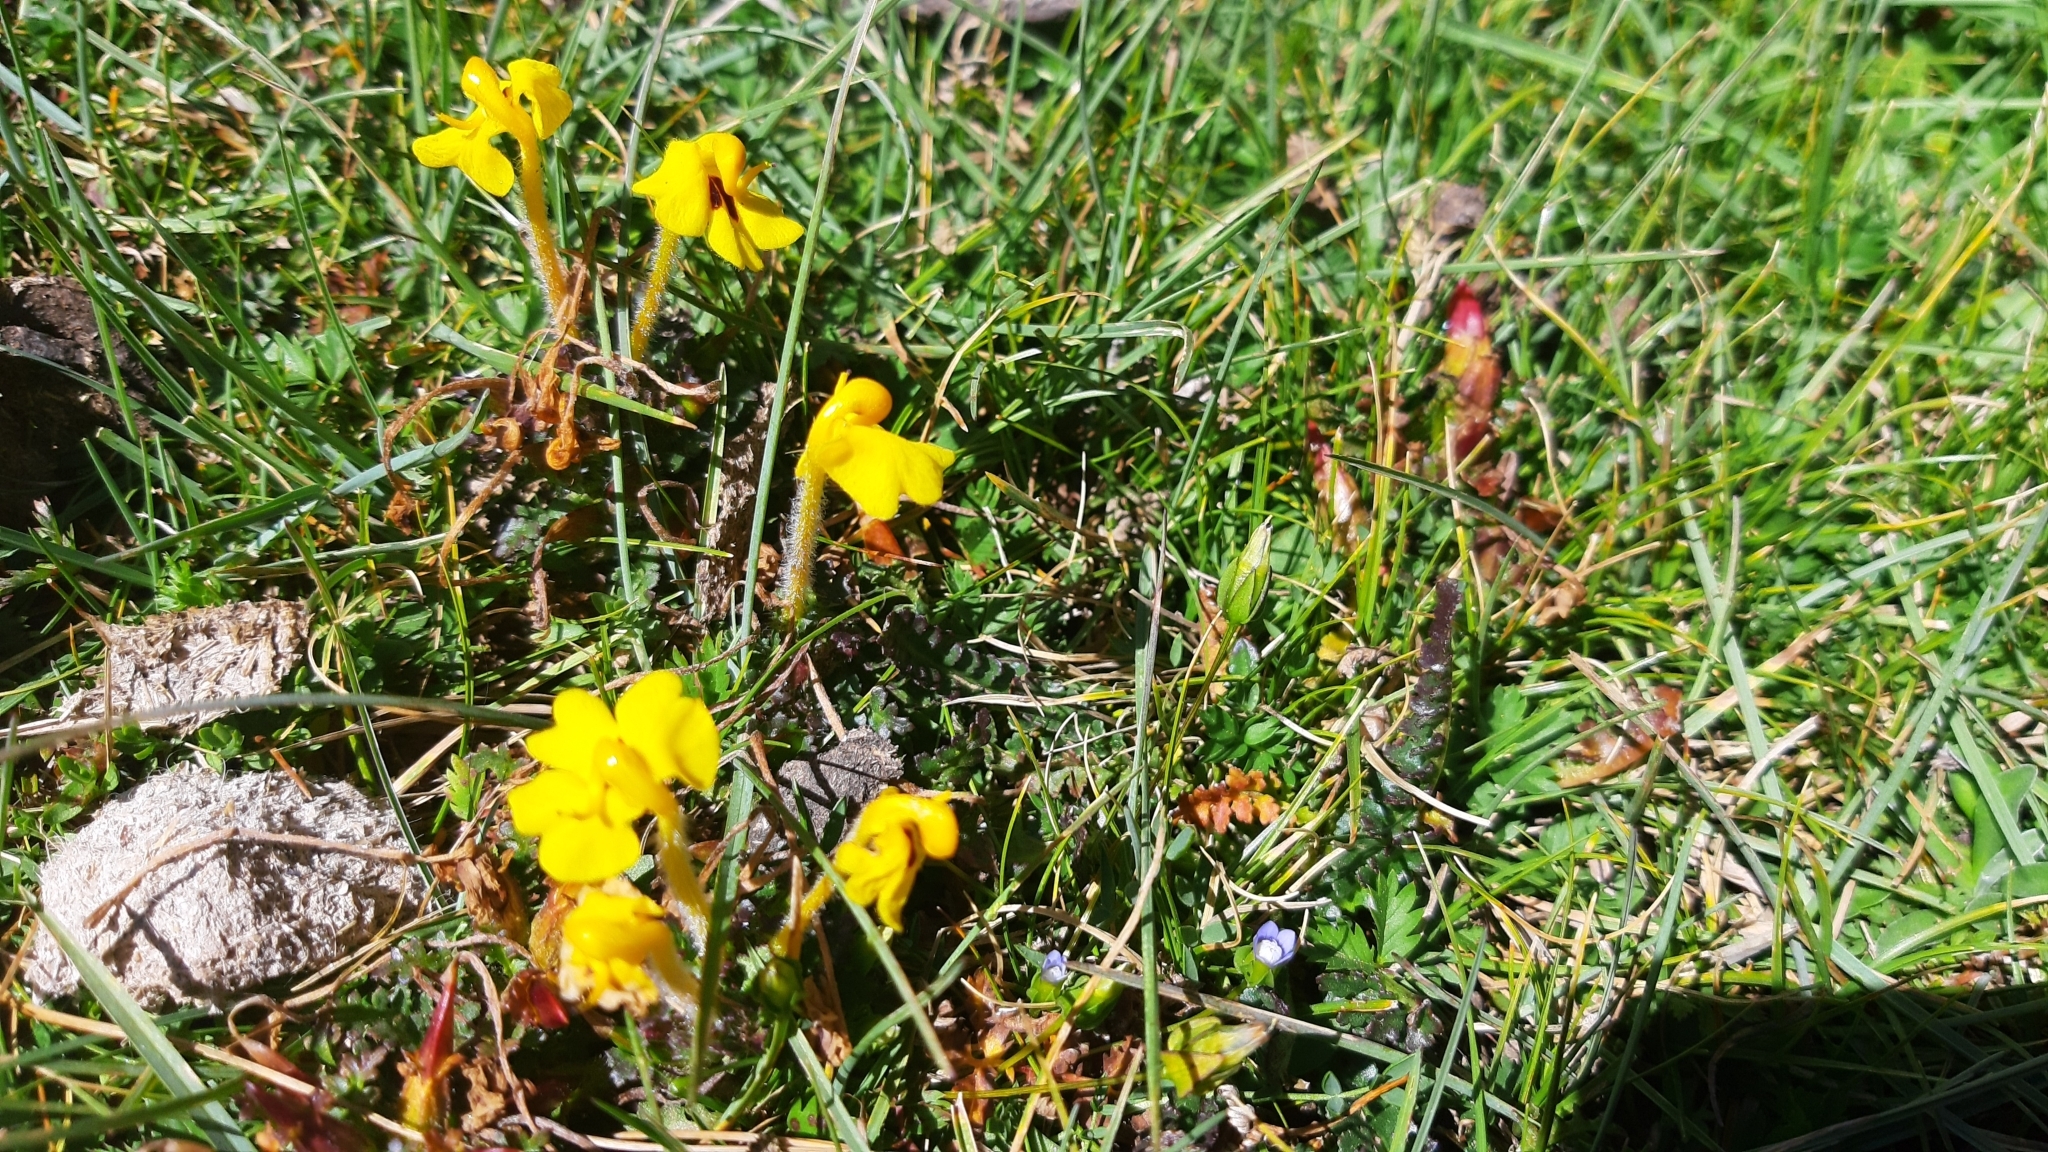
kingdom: Plantae
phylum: Tracheophyta
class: Magnoliopsida
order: Lamiales
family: Orobanchaceae
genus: Pedicularis
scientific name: Pedicularis longiflora
